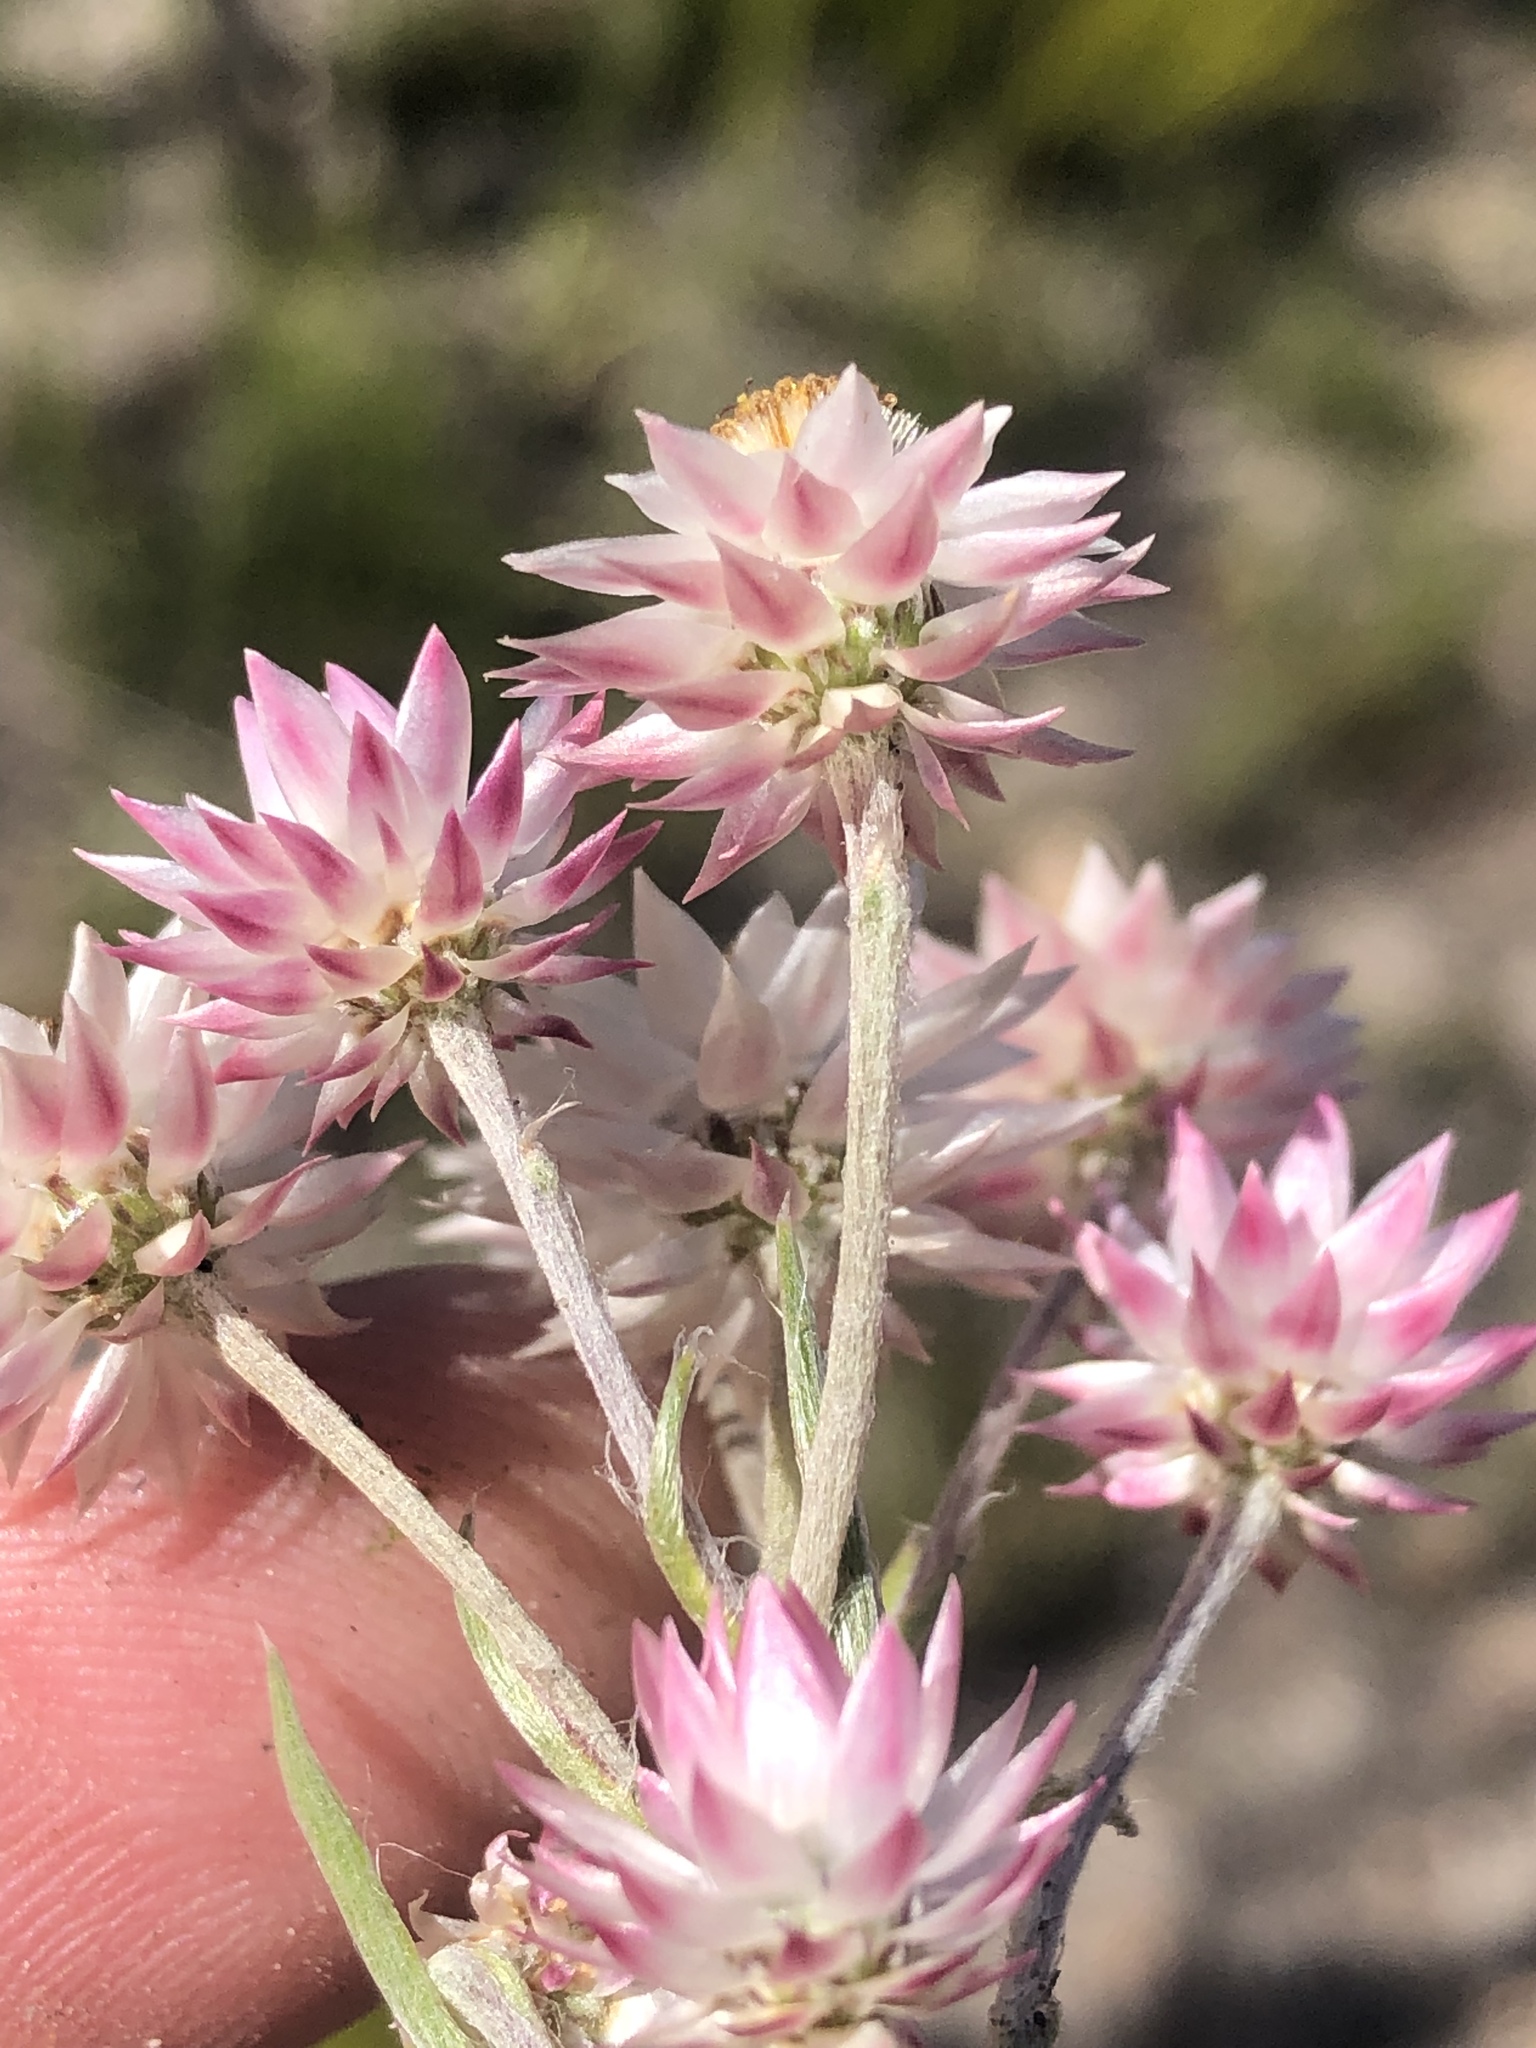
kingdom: Plantae
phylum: Tracheophyta
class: Magnoliopsida
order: Asterales
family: Asteraceae
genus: Achyranthemum
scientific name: Achyranthemum paniculatum
